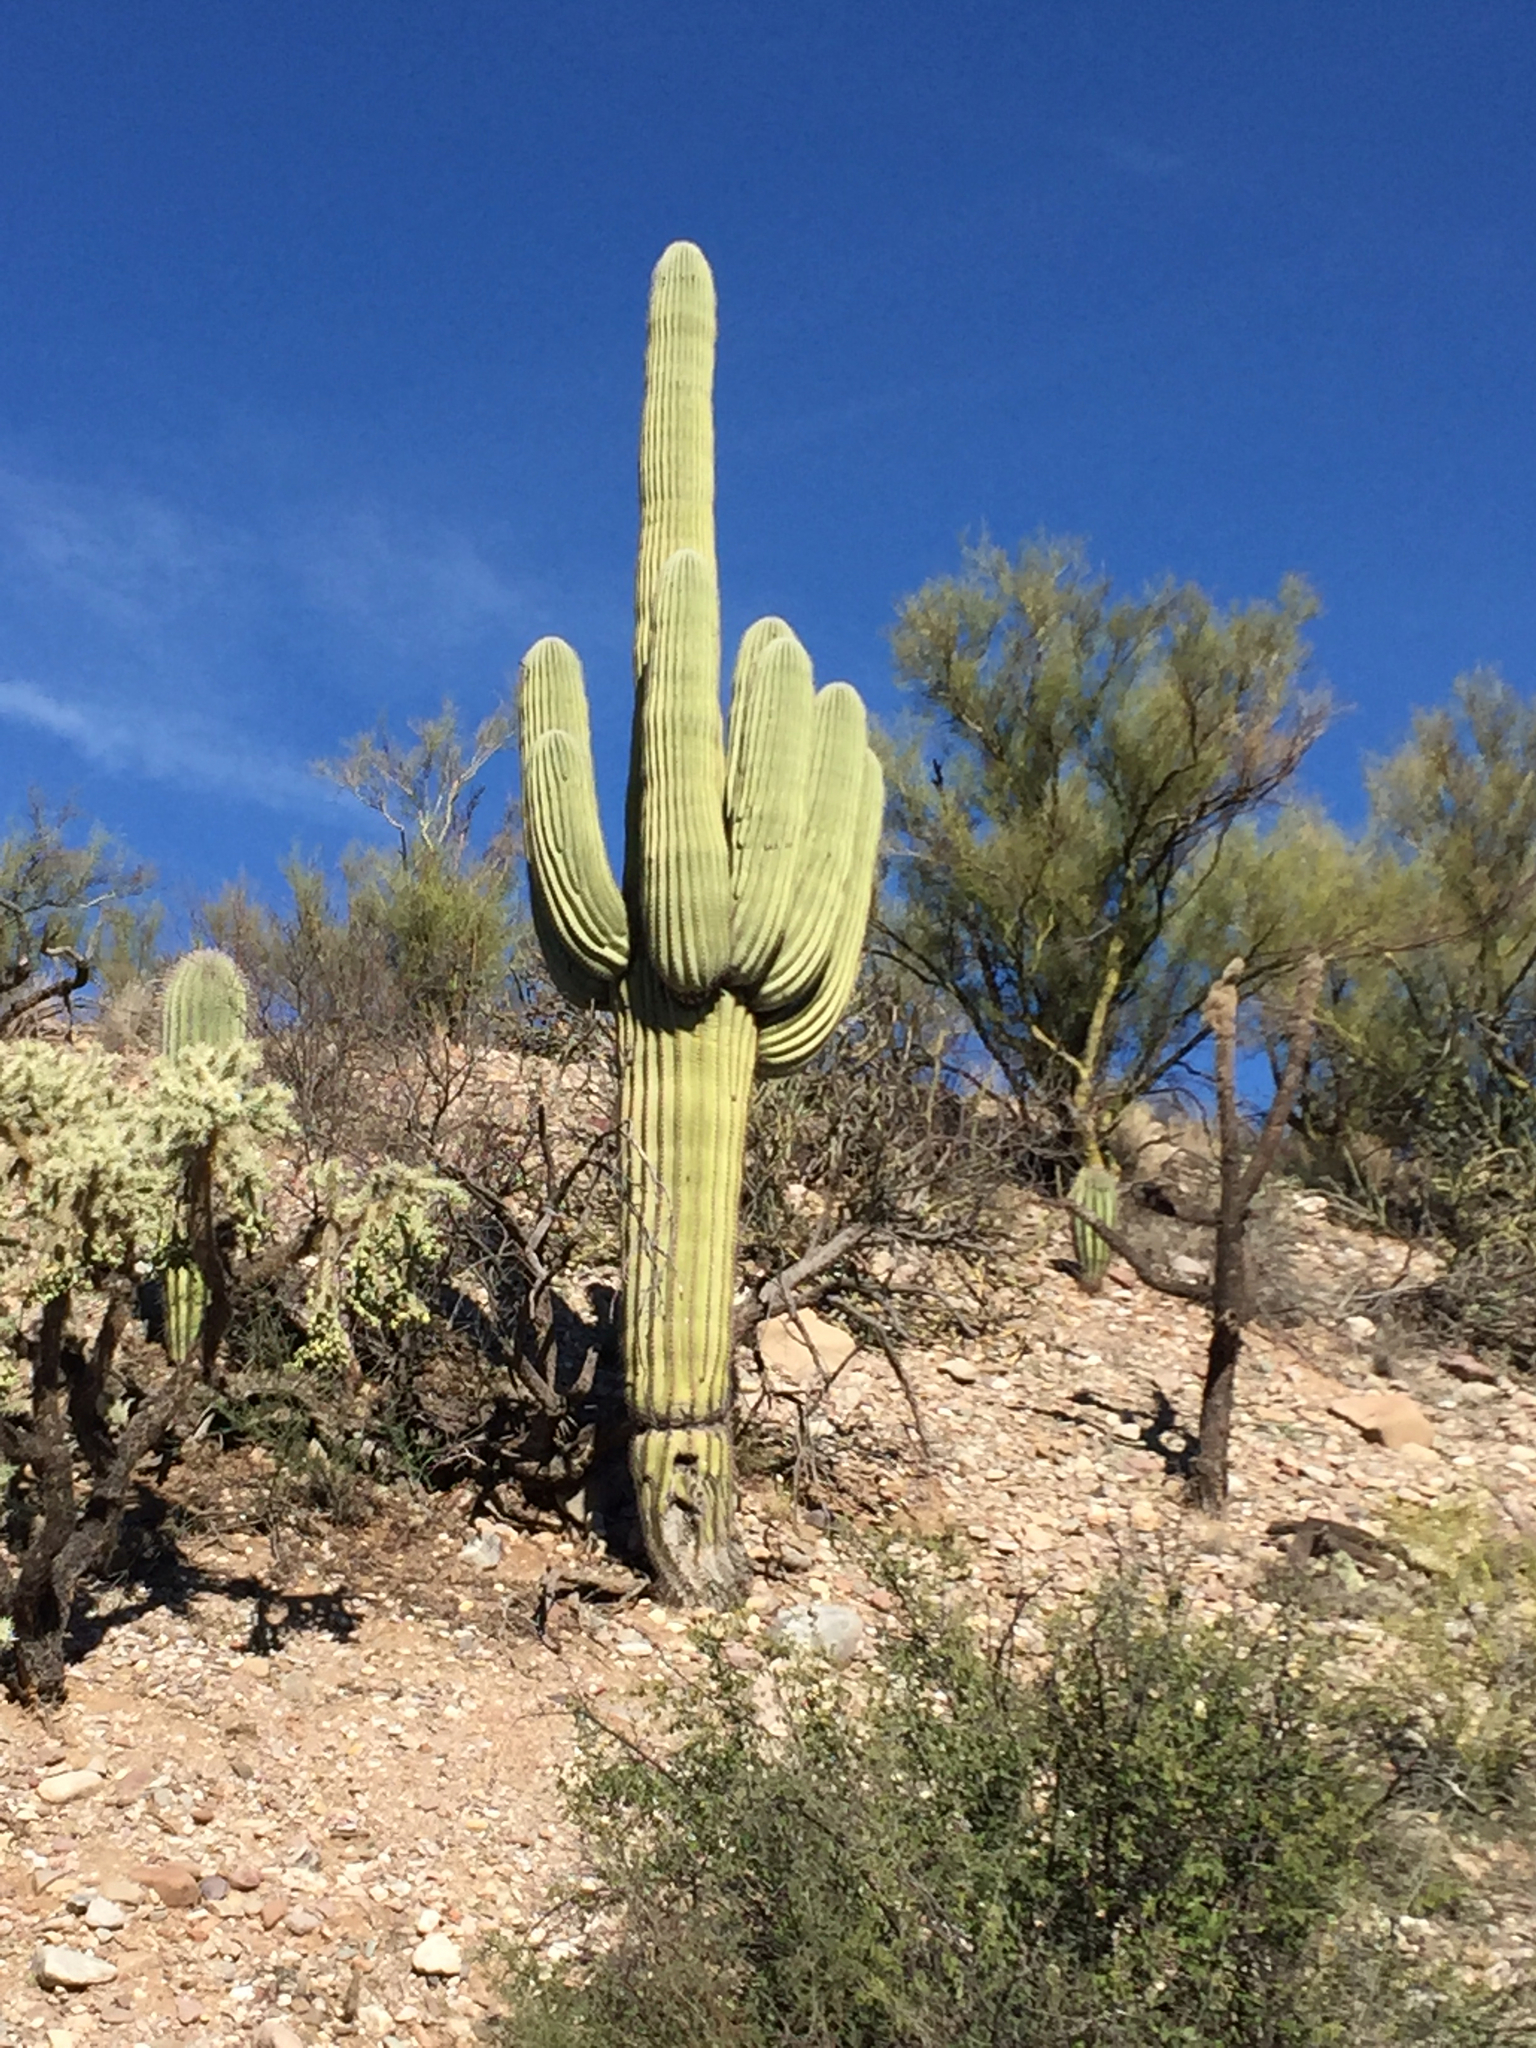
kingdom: Plantae
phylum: Tracheophyta
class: Magnoliopsida
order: Caryophyllales
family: Cactaceae
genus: Carnegiea
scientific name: Carnegiea gigantea
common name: Saguaro
